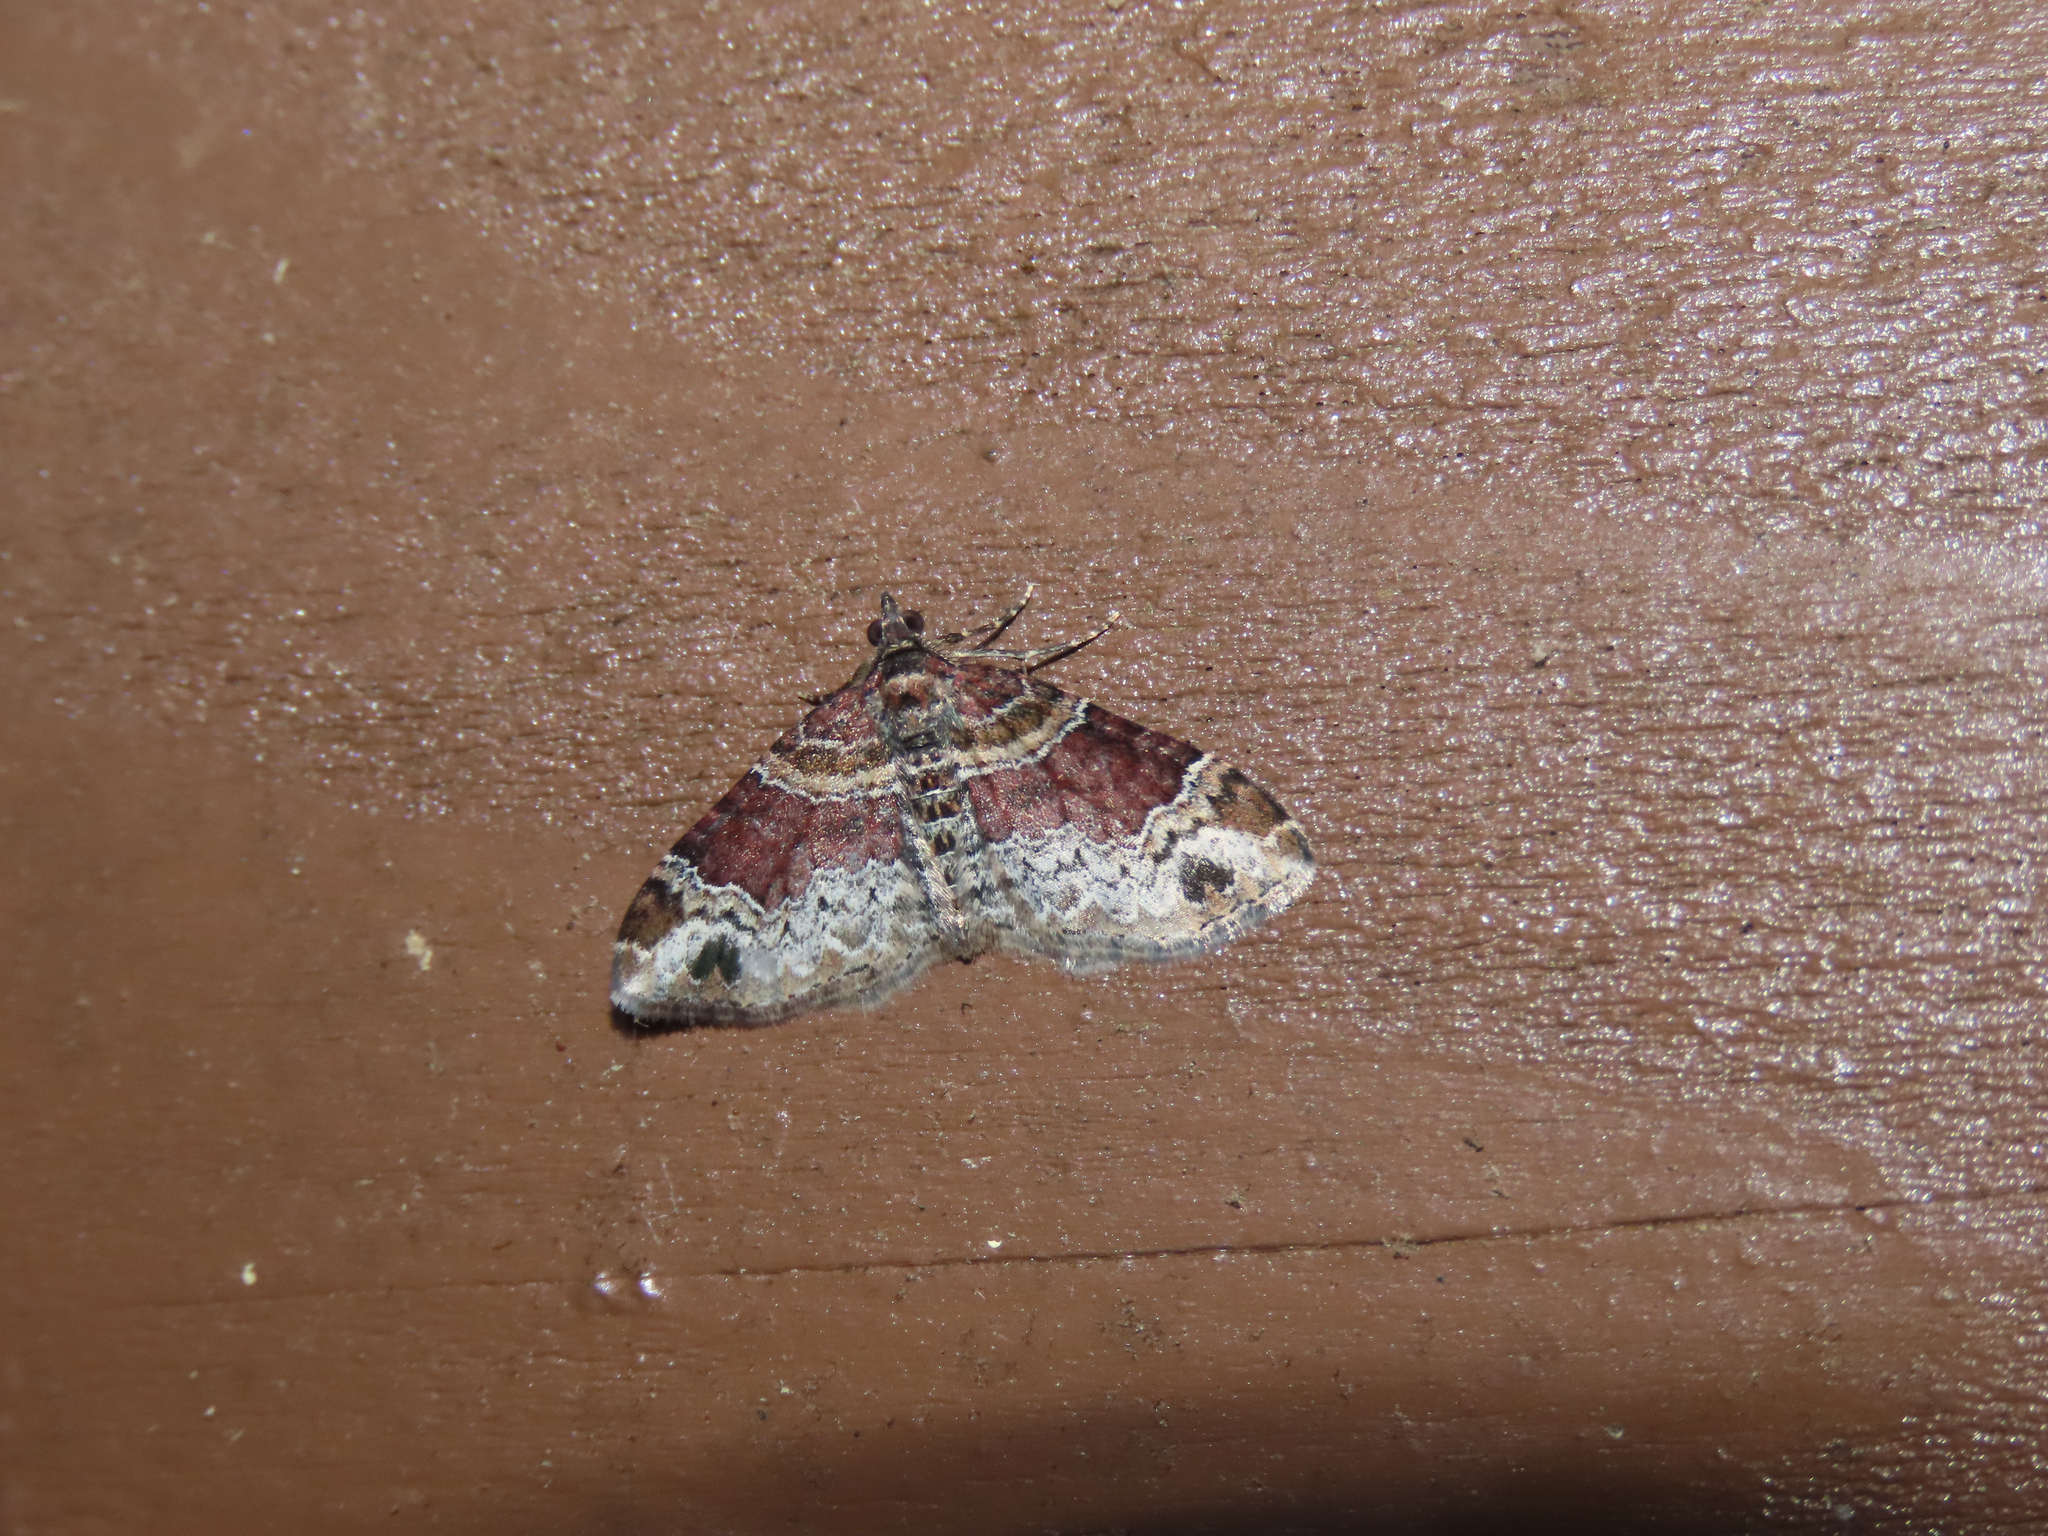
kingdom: Animalia
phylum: Arthropoda
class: Insecta
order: Lepidoptera
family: Geometridae
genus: Xanthorhoe
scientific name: Xanthorhoe ferrugata
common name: Dark-barred twin-spot carpet
